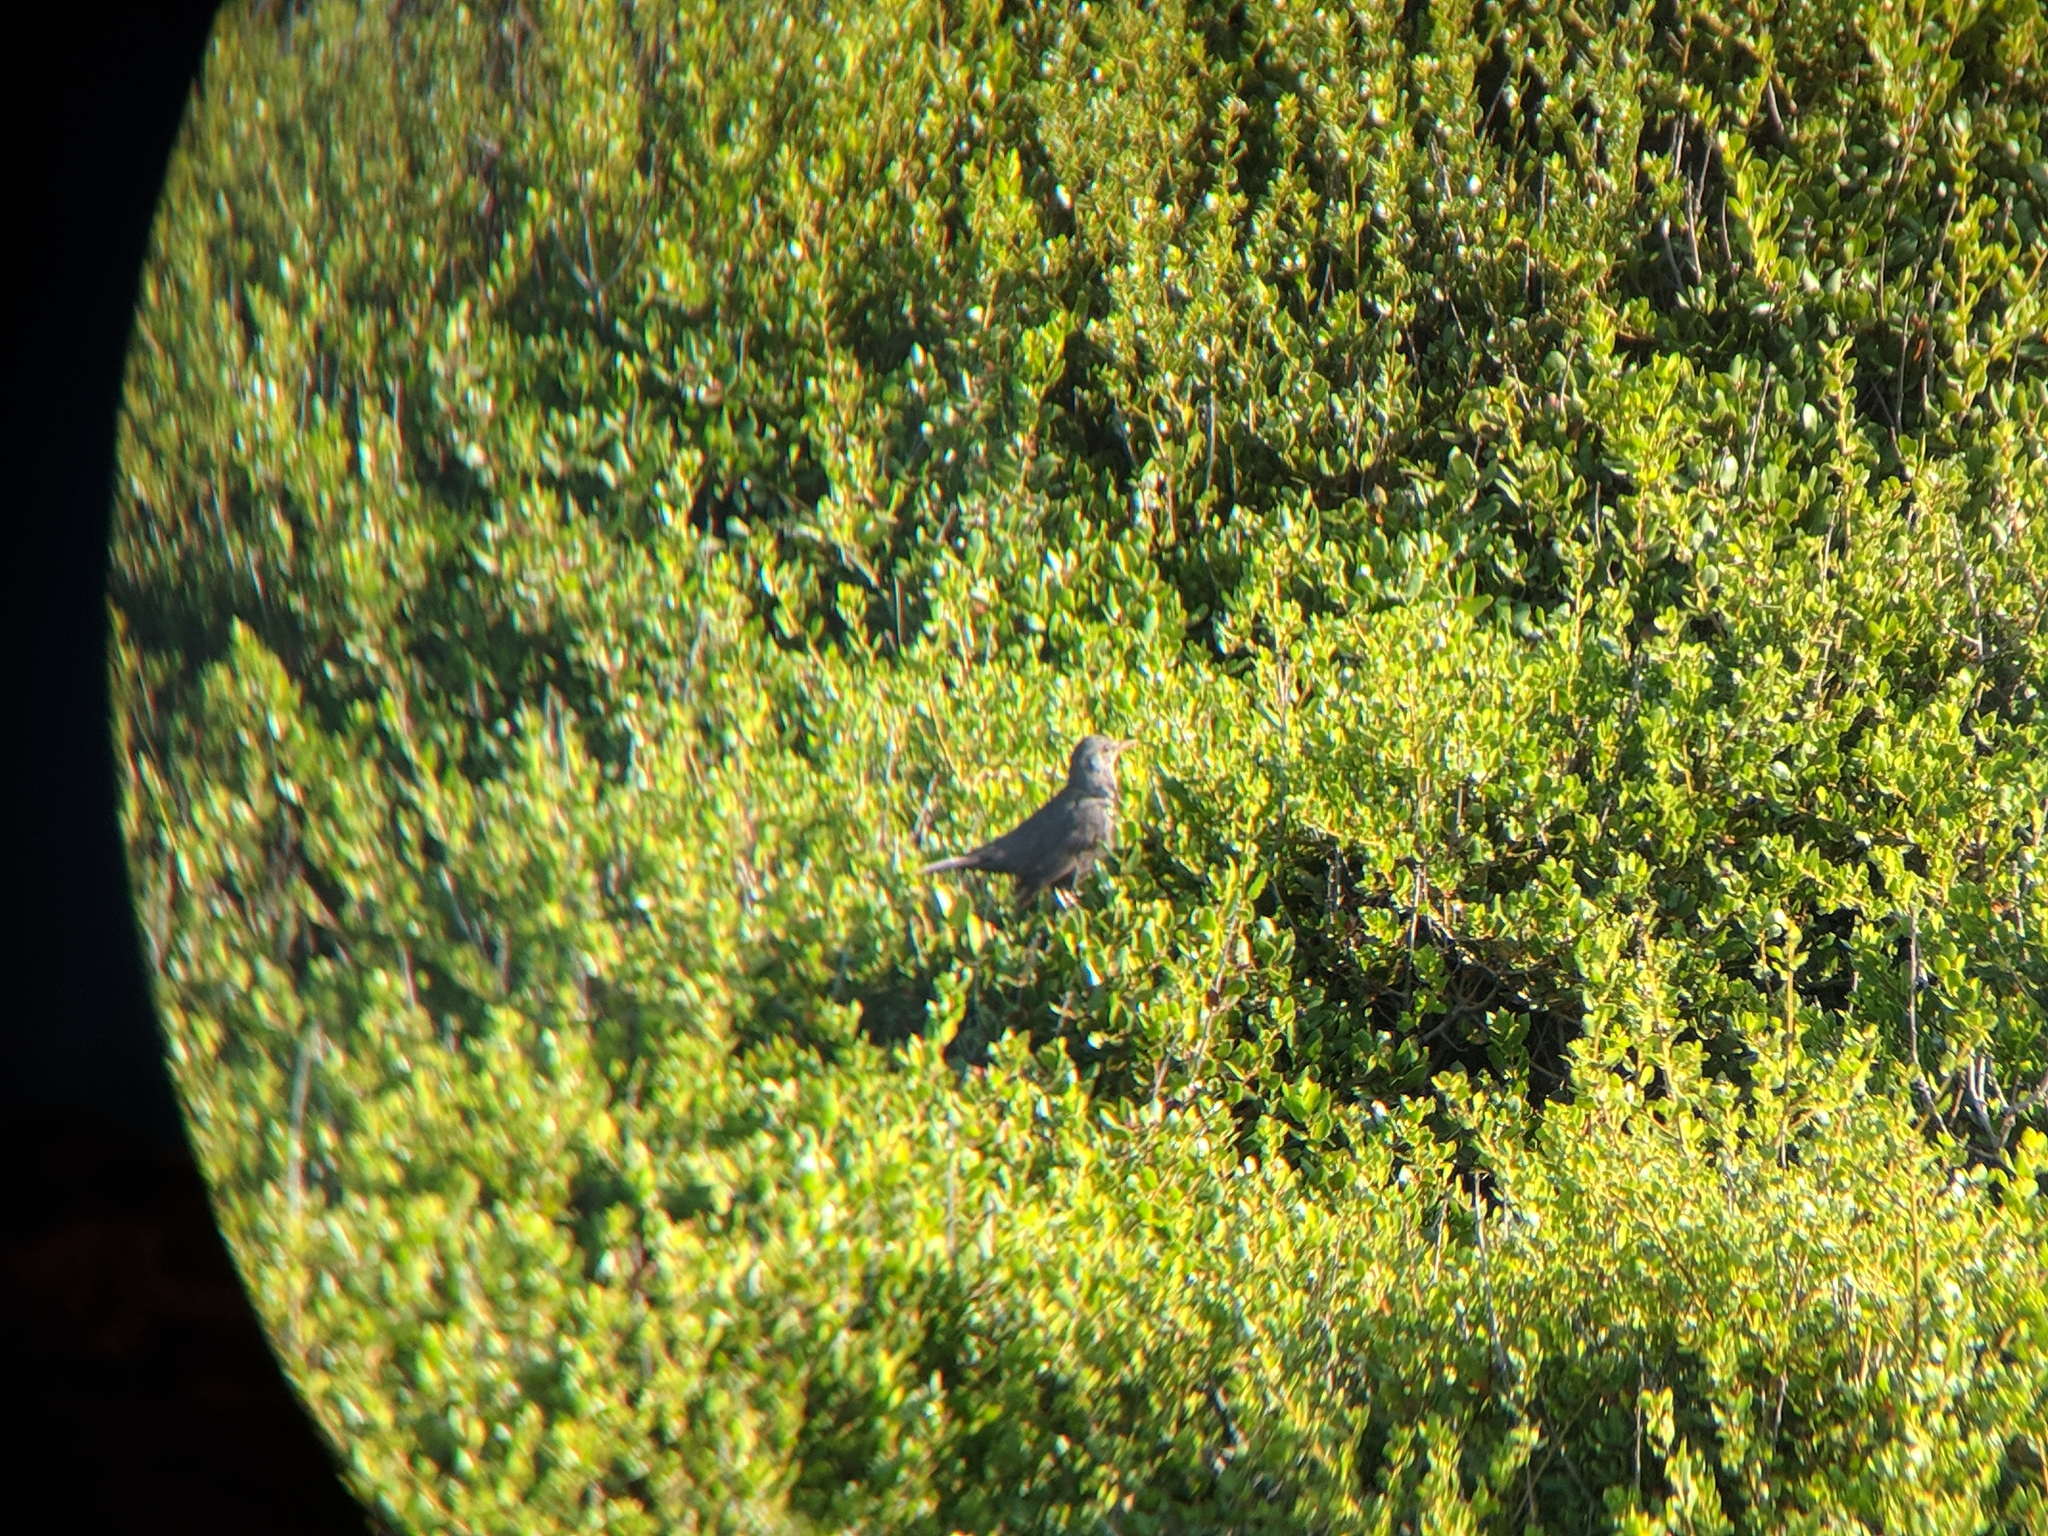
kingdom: Animalia
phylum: Chordata
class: Aves
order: Passeriformes
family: Turdidae
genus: Turdus
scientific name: Turdus merula
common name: Common blackbird
